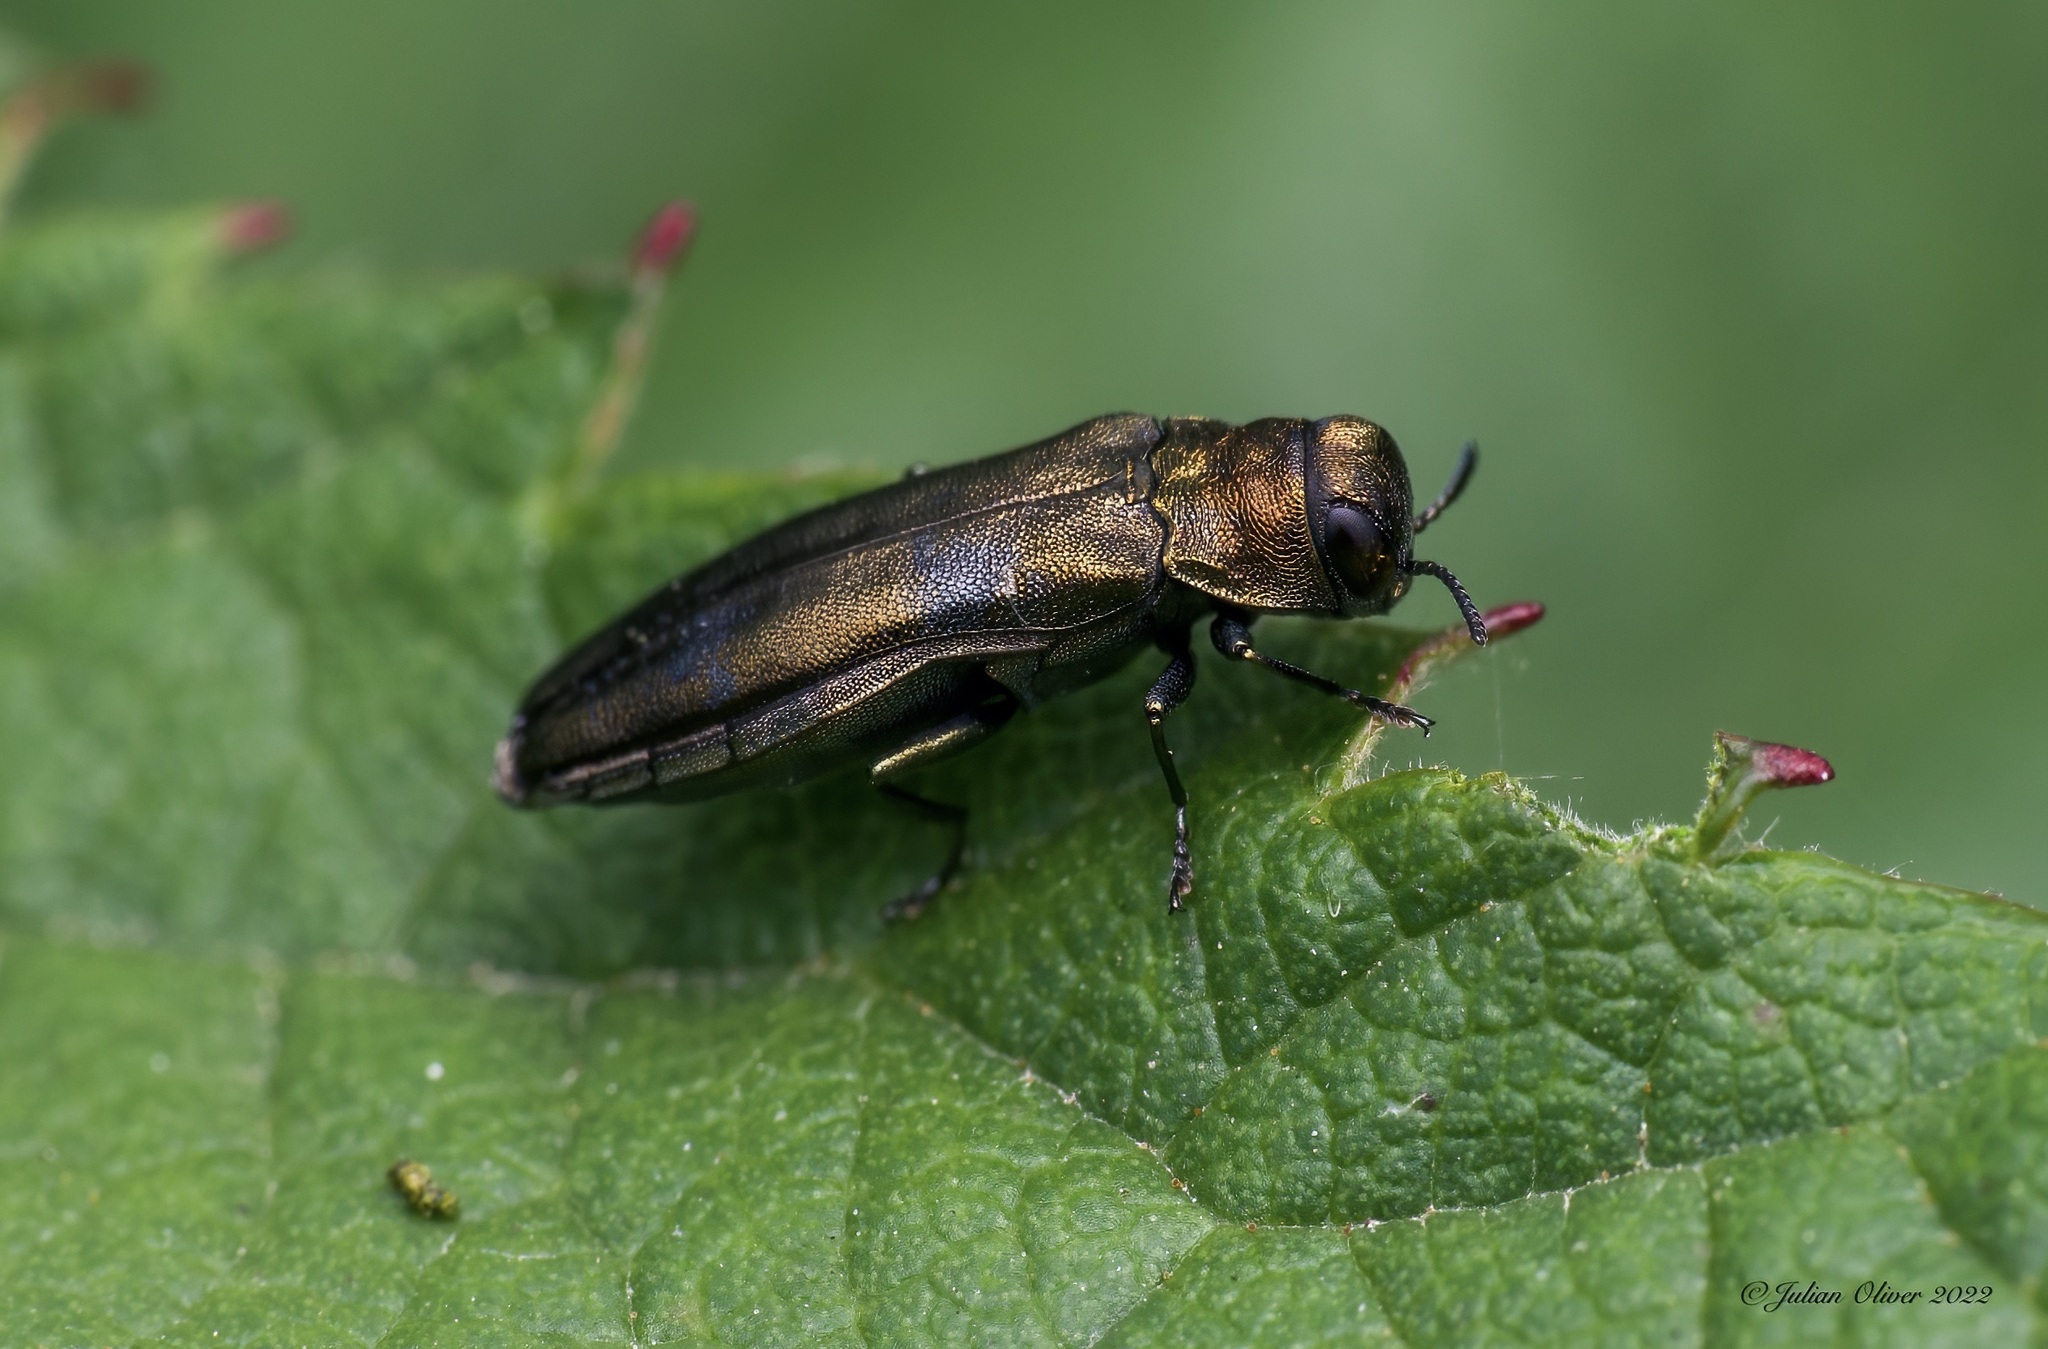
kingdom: Animalia
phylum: Arthropoda
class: Insecta
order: Coleoptera
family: Buprestidae
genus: Agrilus
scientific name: Agrilus cuprescens
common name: Rose stem girdler
